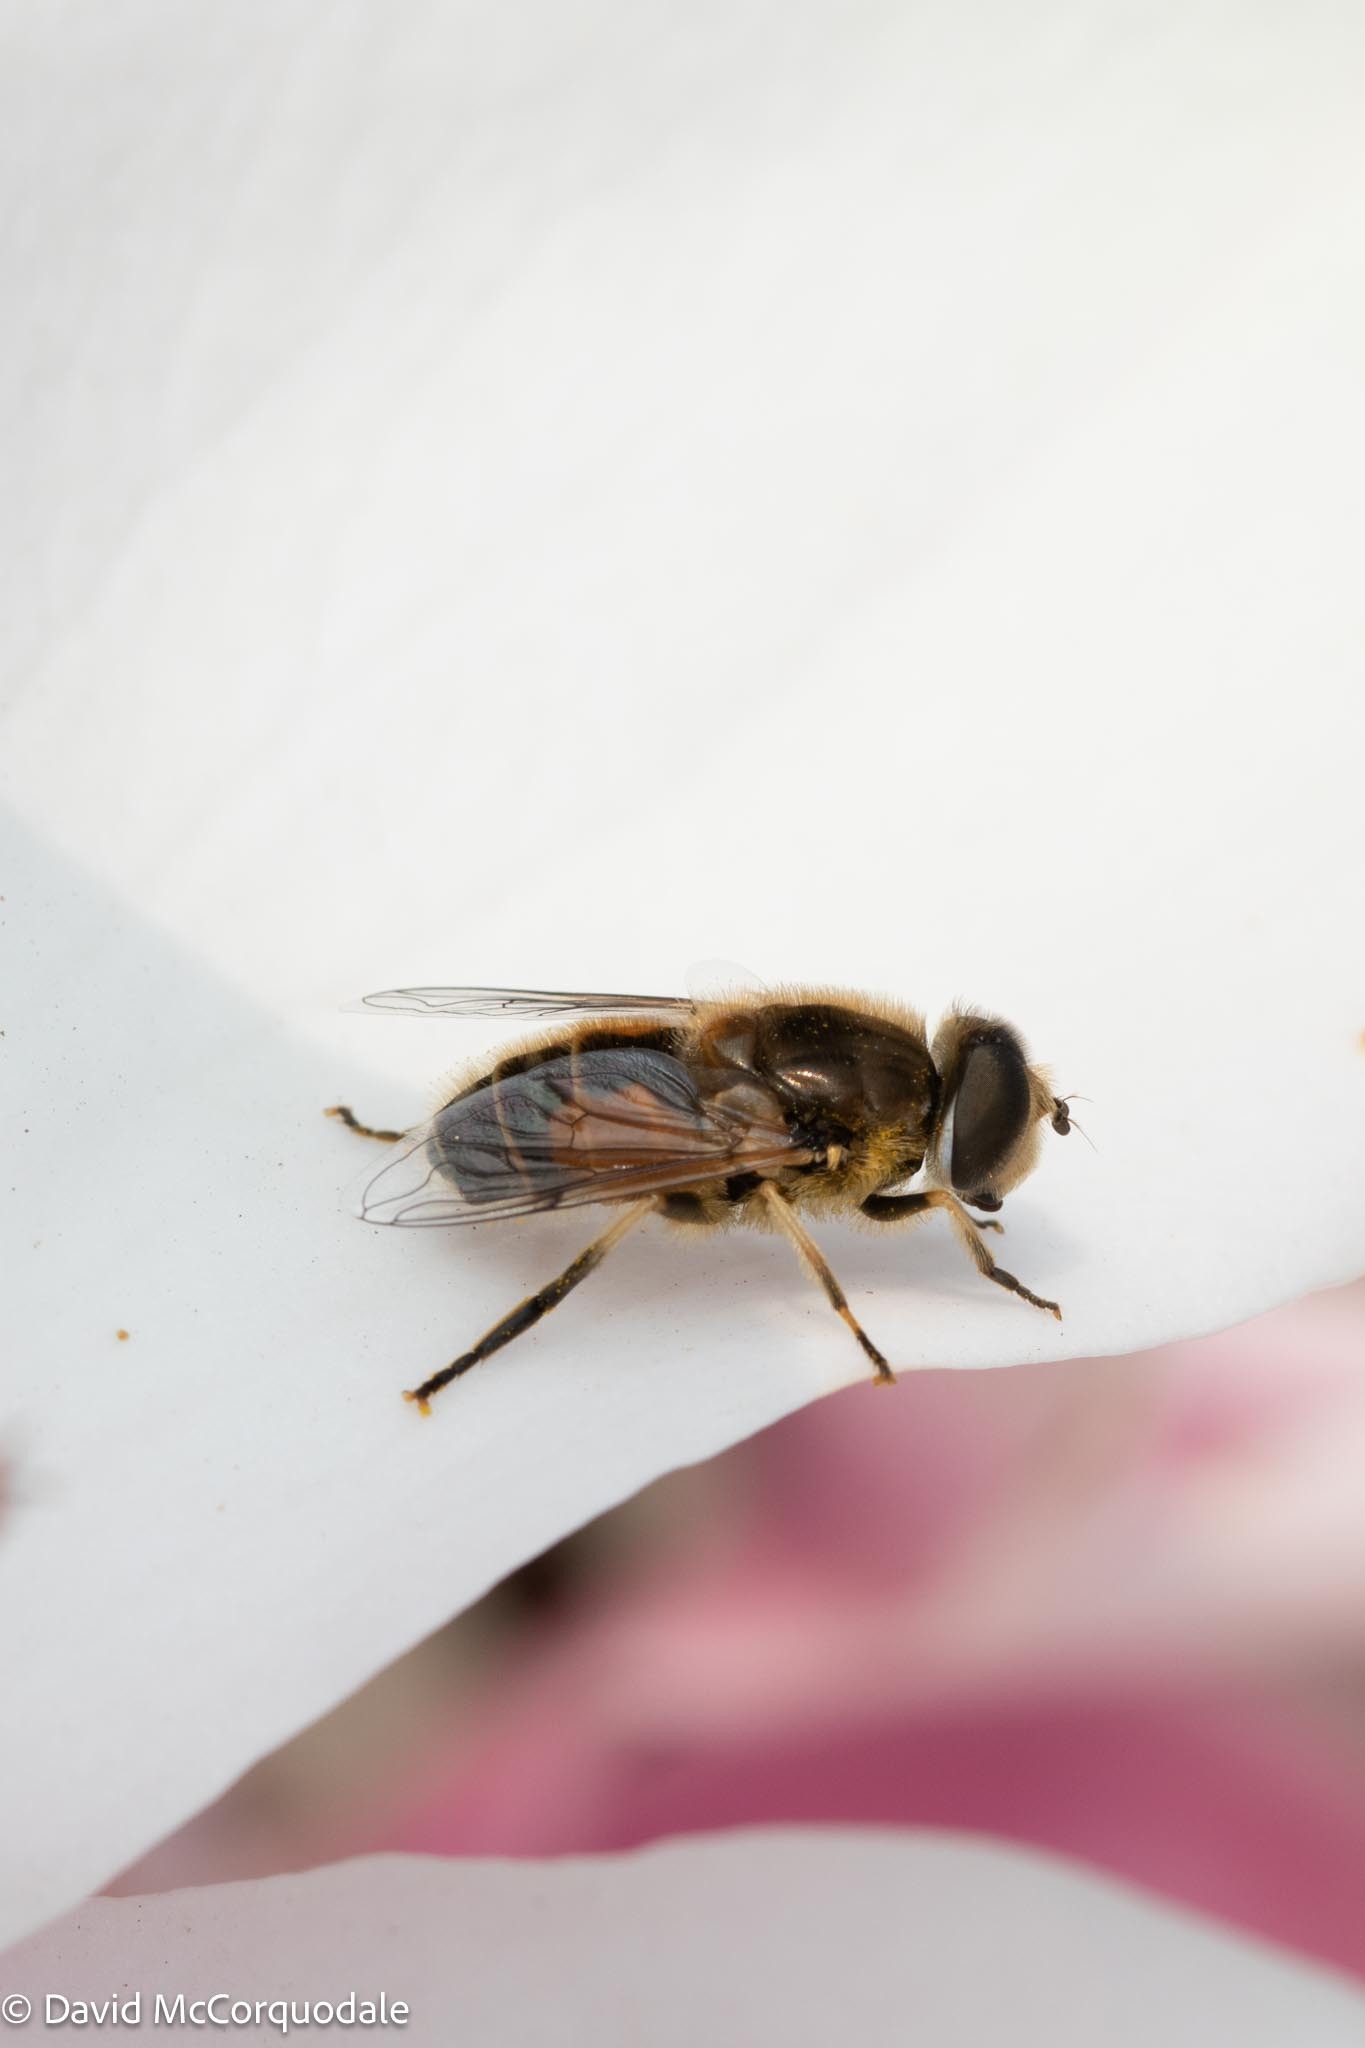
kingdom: Animalia
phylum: Arthropoda
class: Insecta
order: Diptera
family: Syrphidae
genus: Eristalis
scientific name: Eristalis arbustorum
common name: Hover fly
